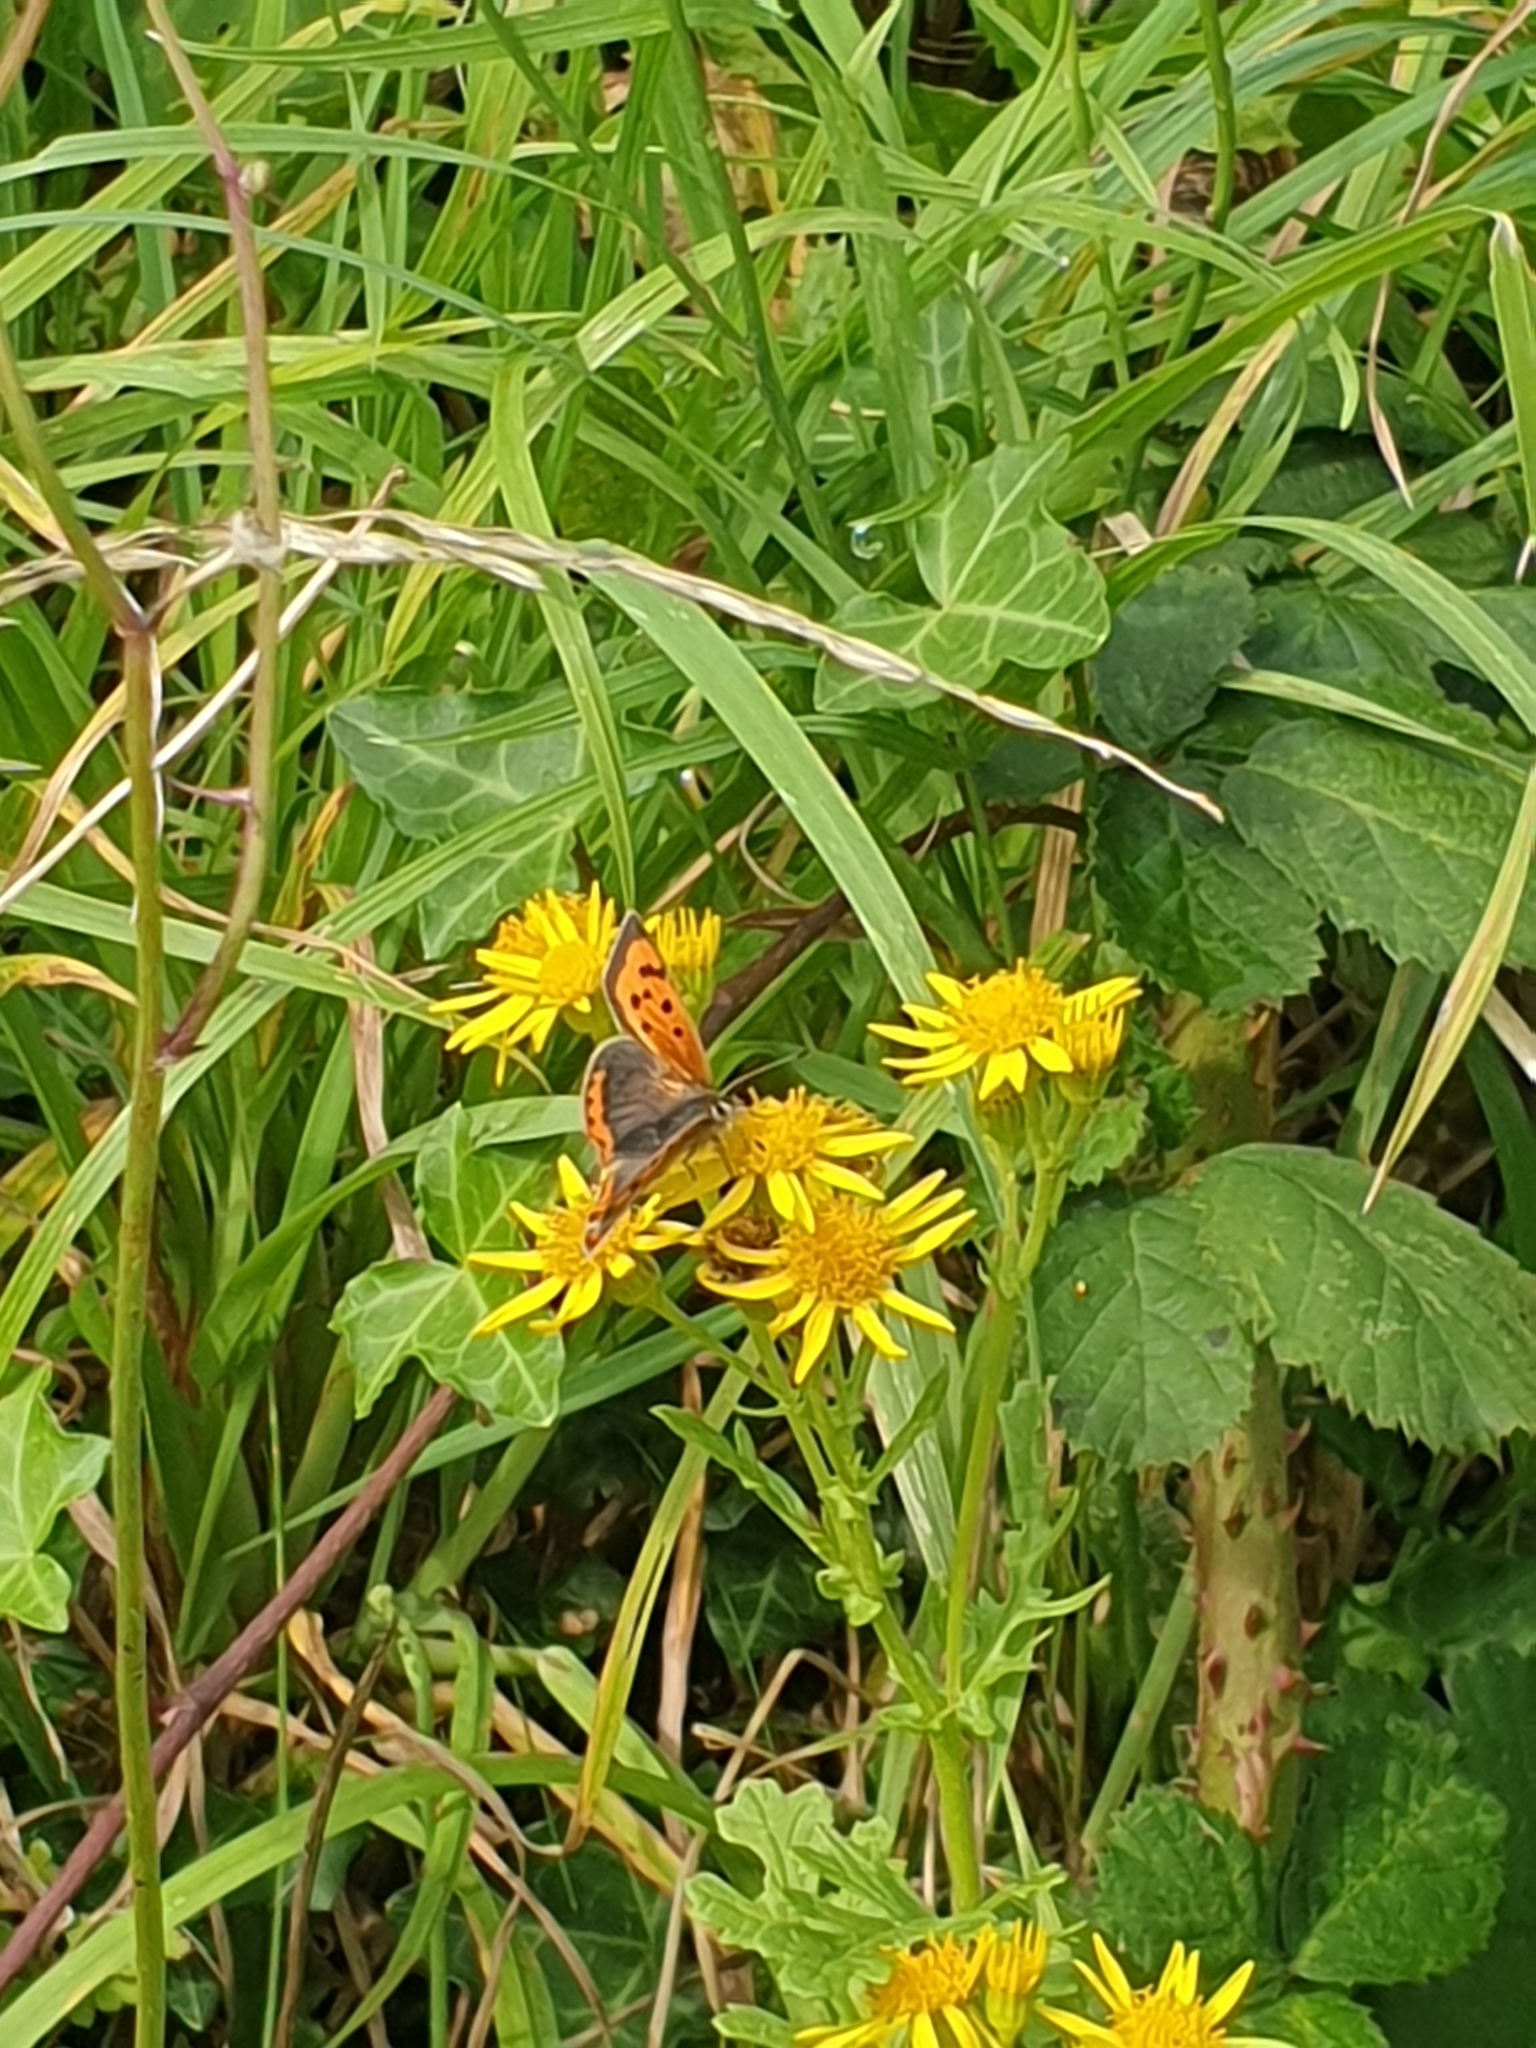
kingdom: Animalia
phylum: Arthropoda
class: Insecta
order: Lepidoptera
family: Lycaenidae
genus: Lycaena
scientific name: Lycaena phlaeas
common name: Small copper
